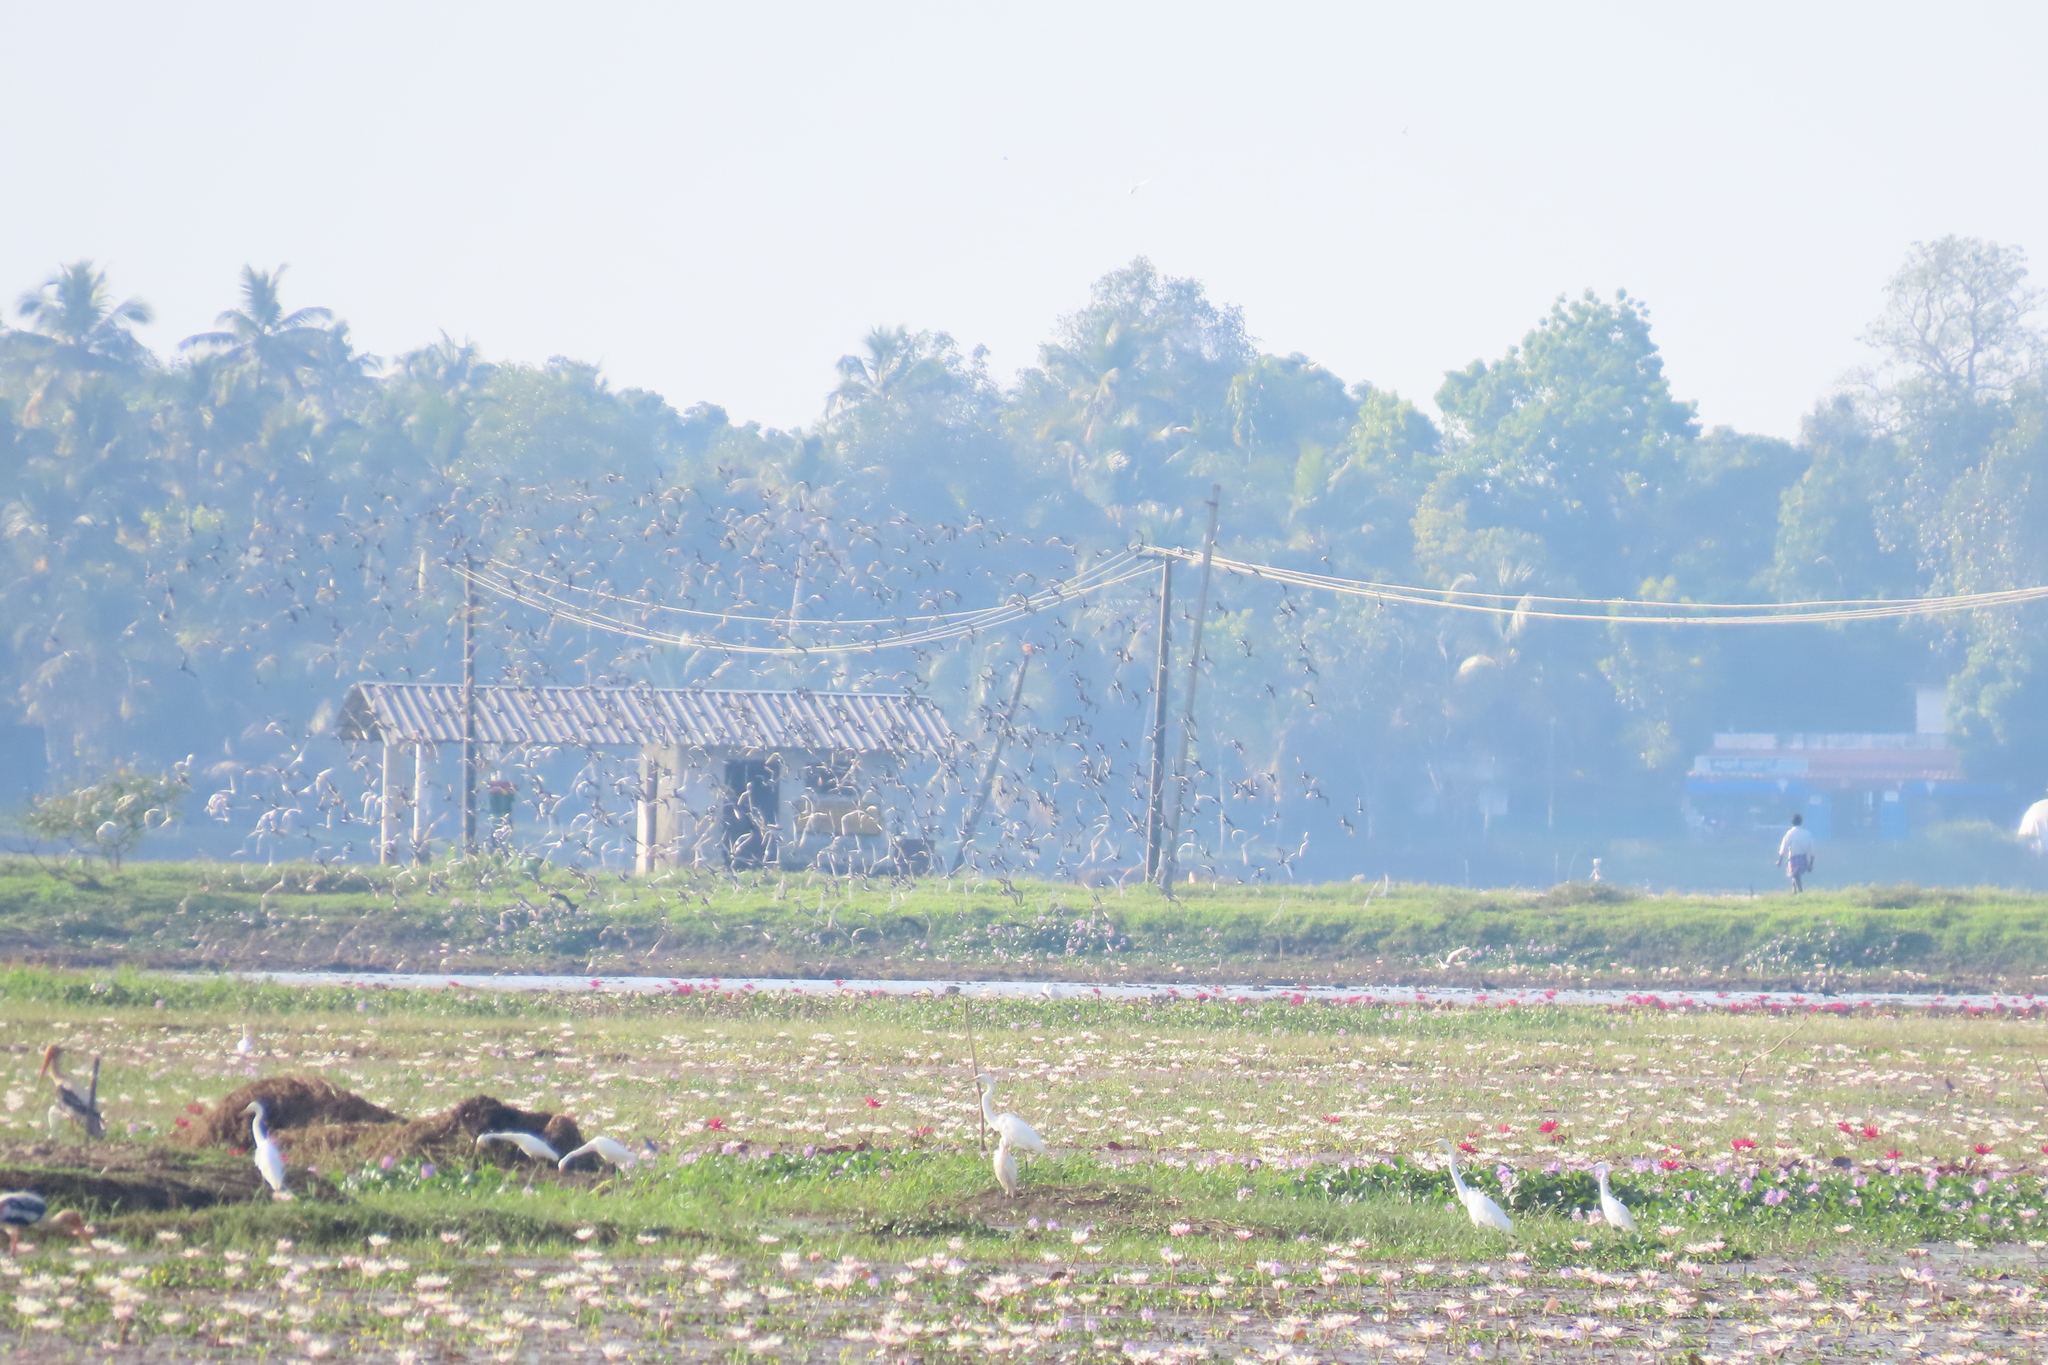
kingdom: Animalia
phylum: Chordata
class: Aves
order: Ciconiiformes
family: Ciconiidae
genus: Mycteria
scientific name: Mycteria leucocephala
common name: Painted stork
